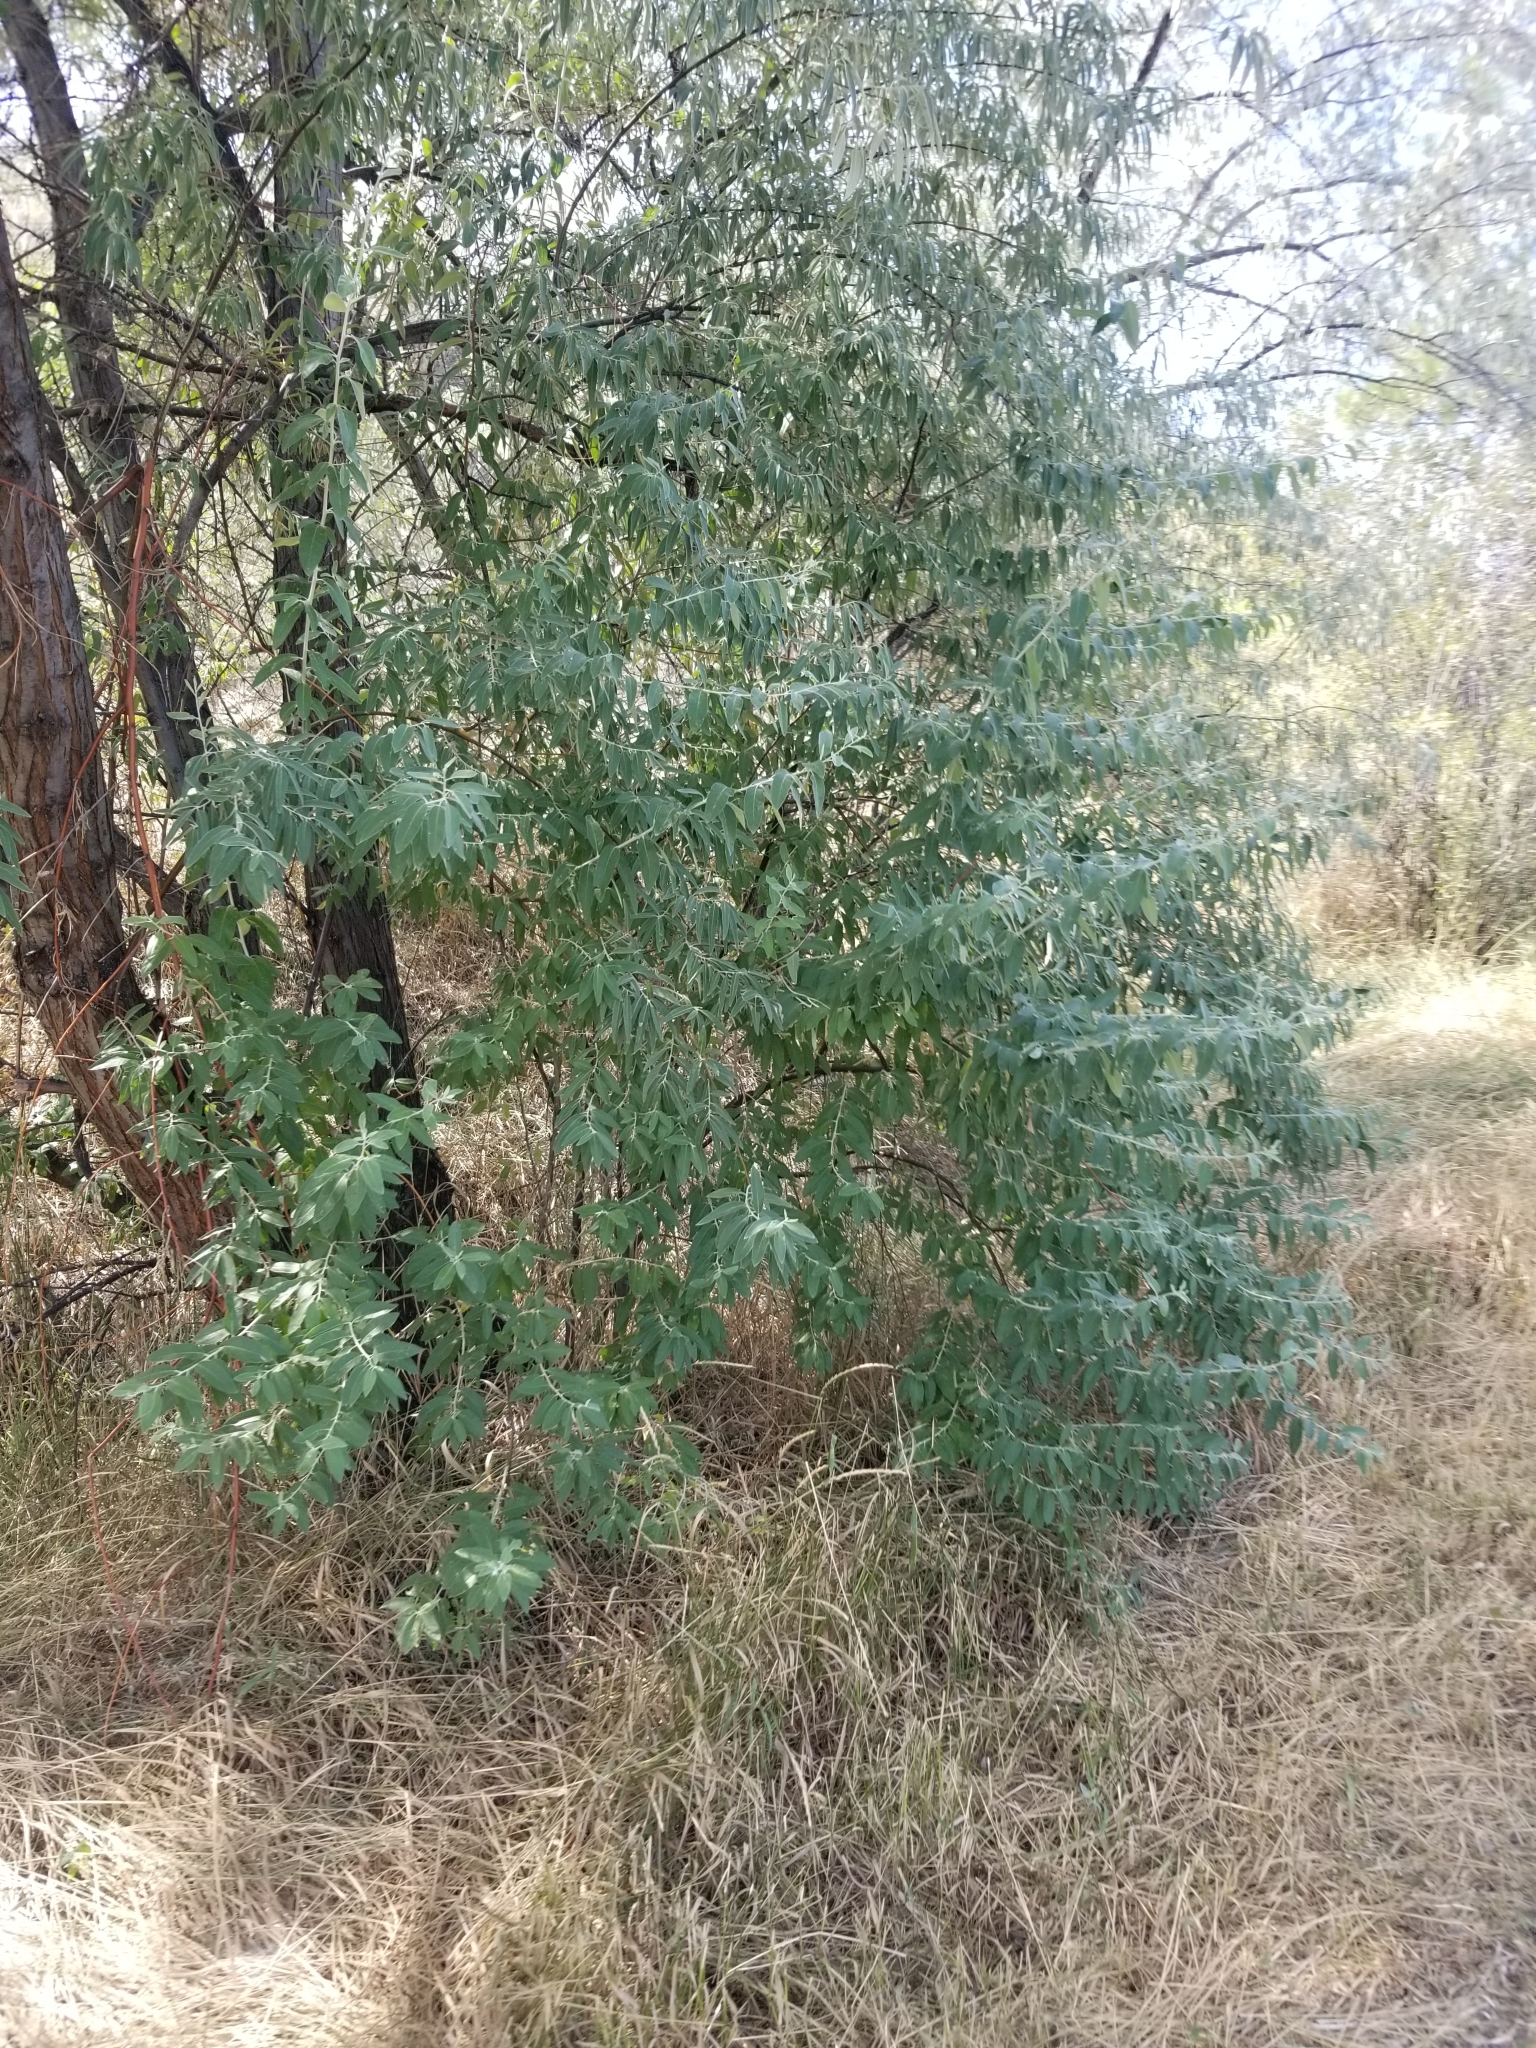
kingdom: Plantae
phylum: Tracheophyta
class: Magnoliopsida
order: Rosales
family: Elaeagnaceae
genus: Elaeagnus
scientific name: Elaeagnus angustifolia
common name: Russian olive
